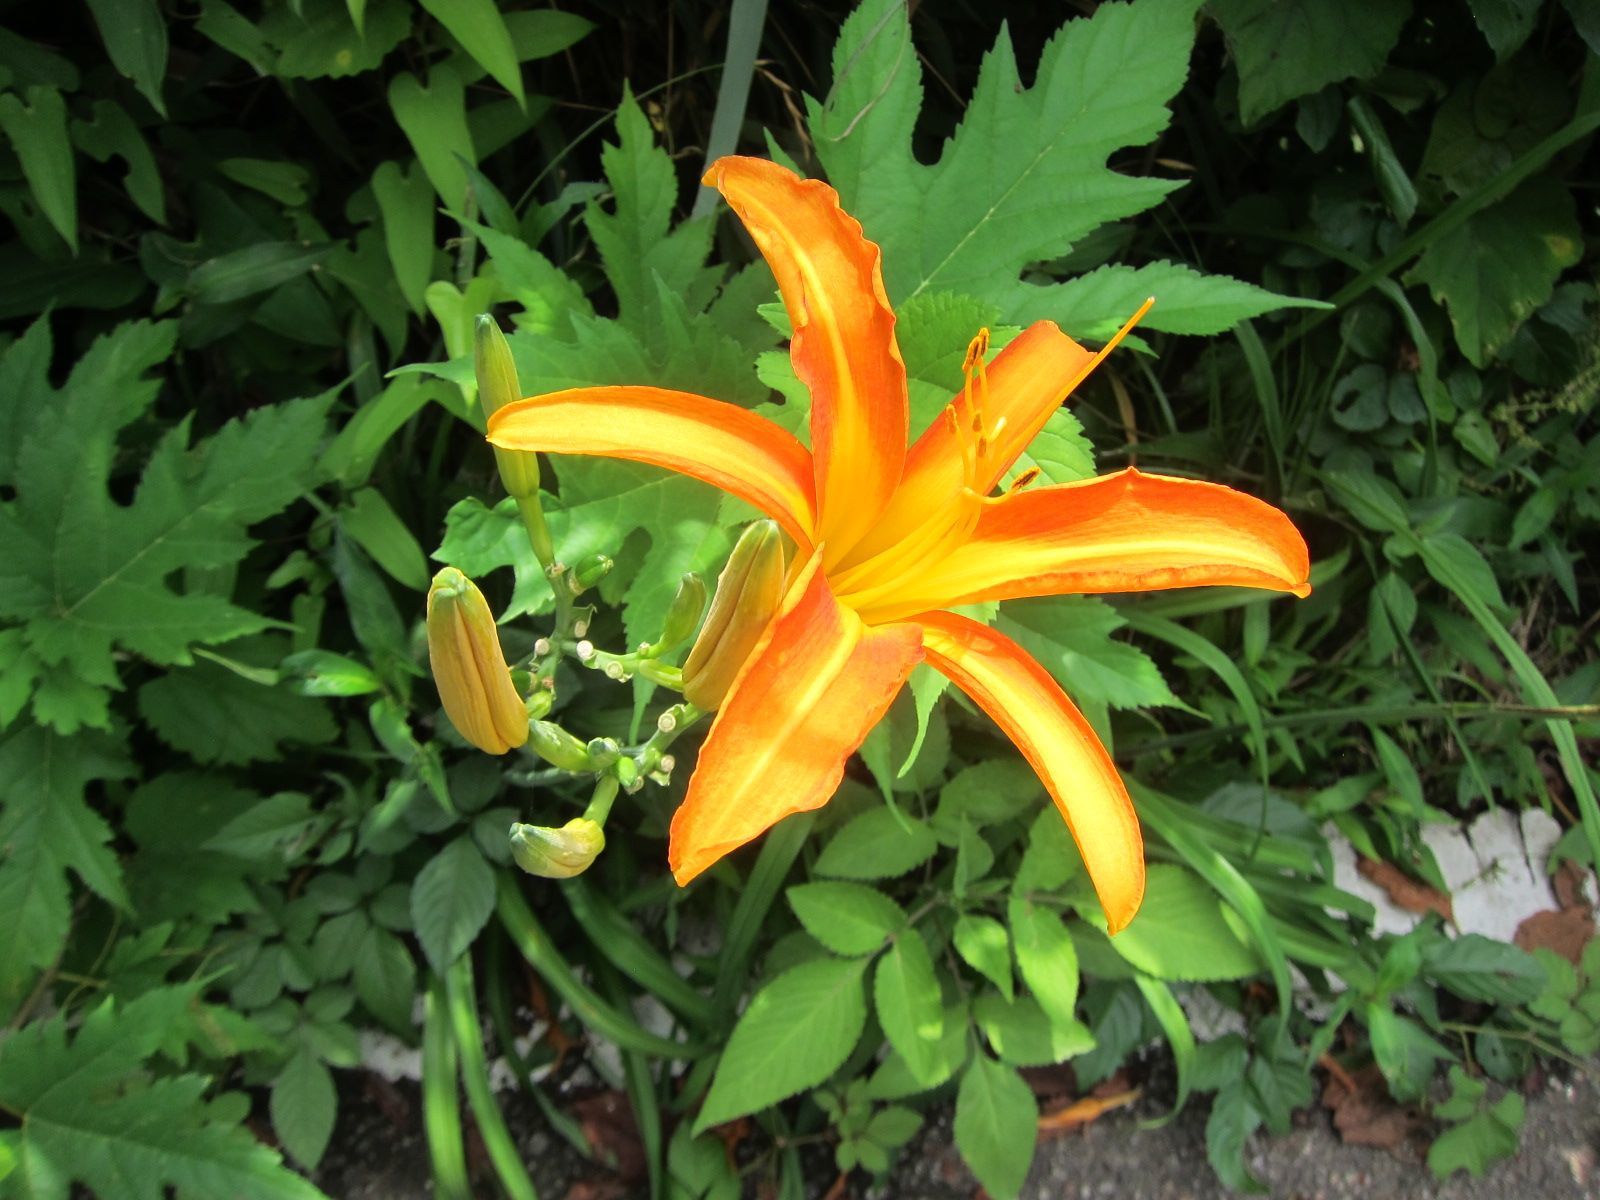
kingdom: Plantae
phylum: Tracheophyta
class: Liliopsida
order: Asparagales
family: Asphodelaceae
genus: Hemerocallis
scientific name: Hemerocallis fulva
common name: Orange day-lily
